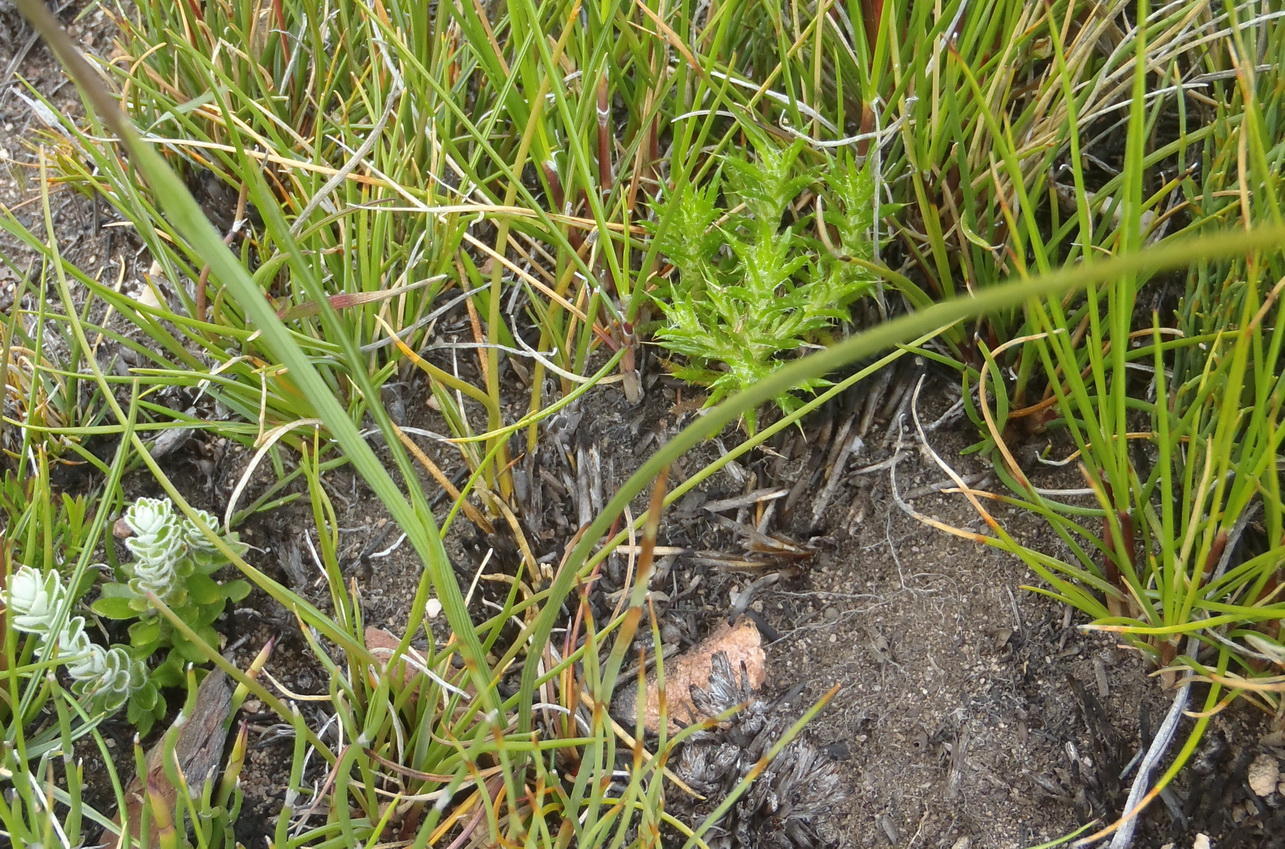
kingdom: Plantae
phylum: Tracheophyta
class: Liliopsida
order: Asparagales
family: Iridaceae
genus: Ixia
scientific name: Ixia confusa
